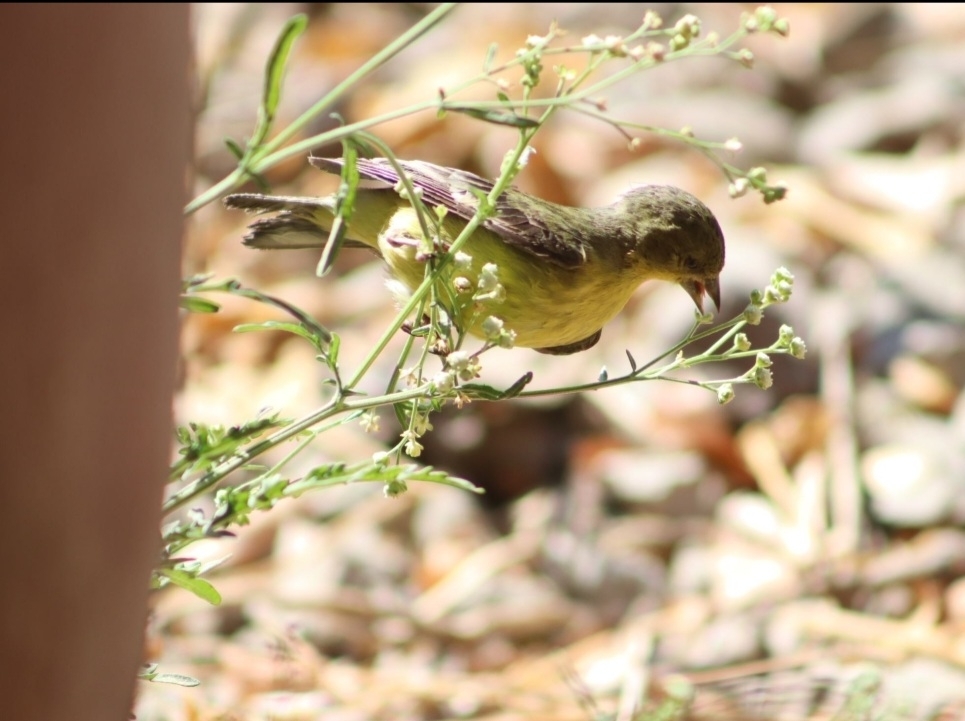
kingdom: Animalia
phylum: Chordata
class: Aves
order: Passeriformes
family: Fringillidae
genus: Spinus
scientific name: Spinus psaltria
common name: Lesser goldfinch
